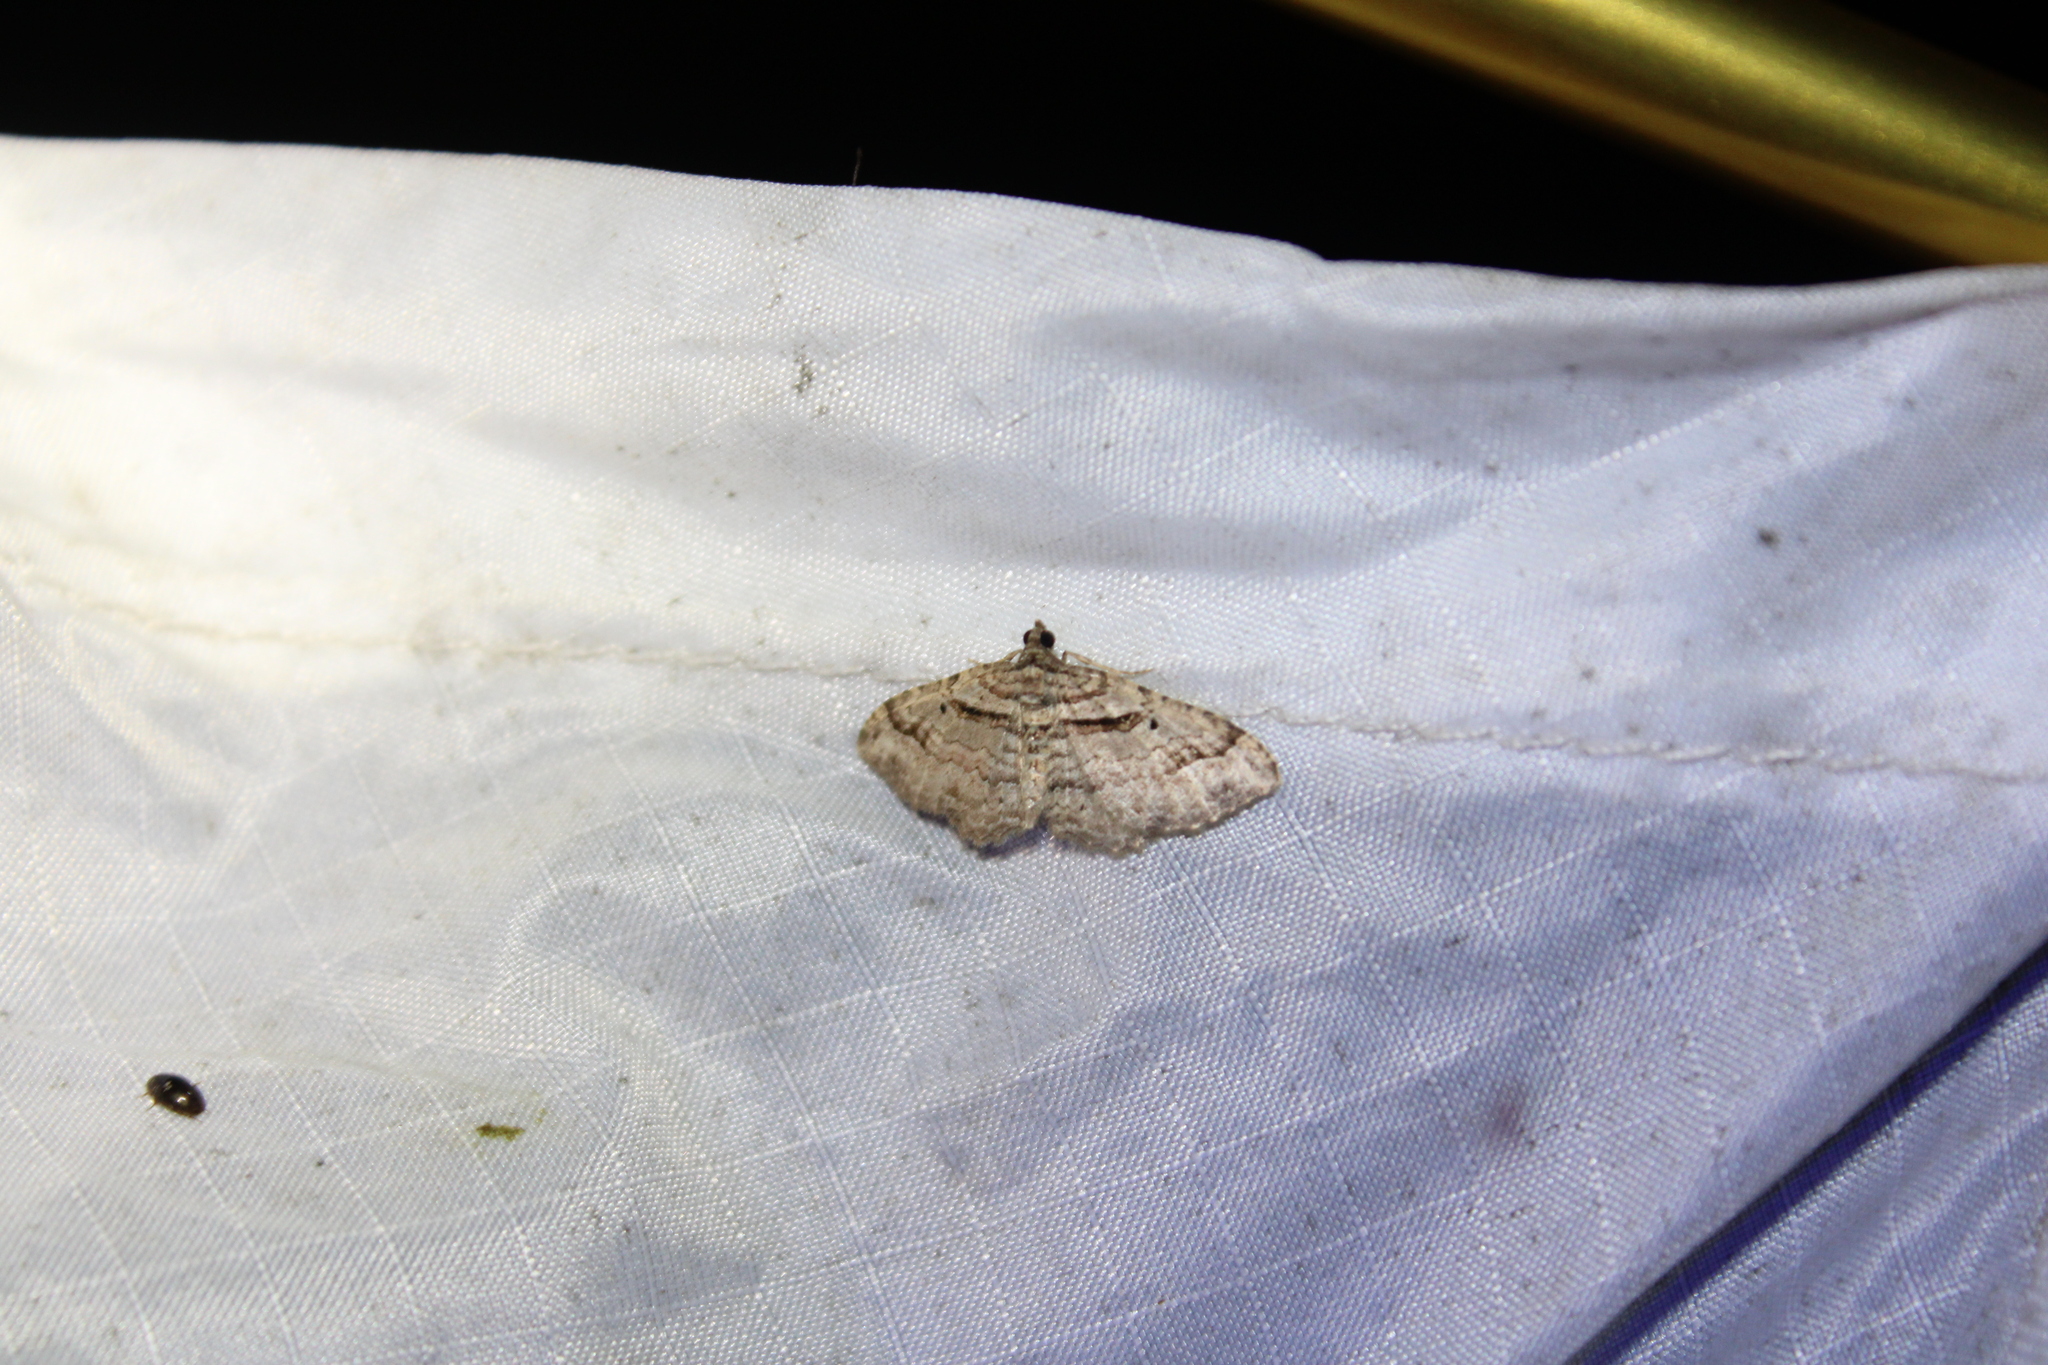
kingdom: Animalia
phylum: Arthropoda
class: Insecta
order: Lepidoptera
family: Geometridae
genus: Costaconvexa
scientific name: Costaconvexa centrostrigaria
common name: Bent-line carpet
